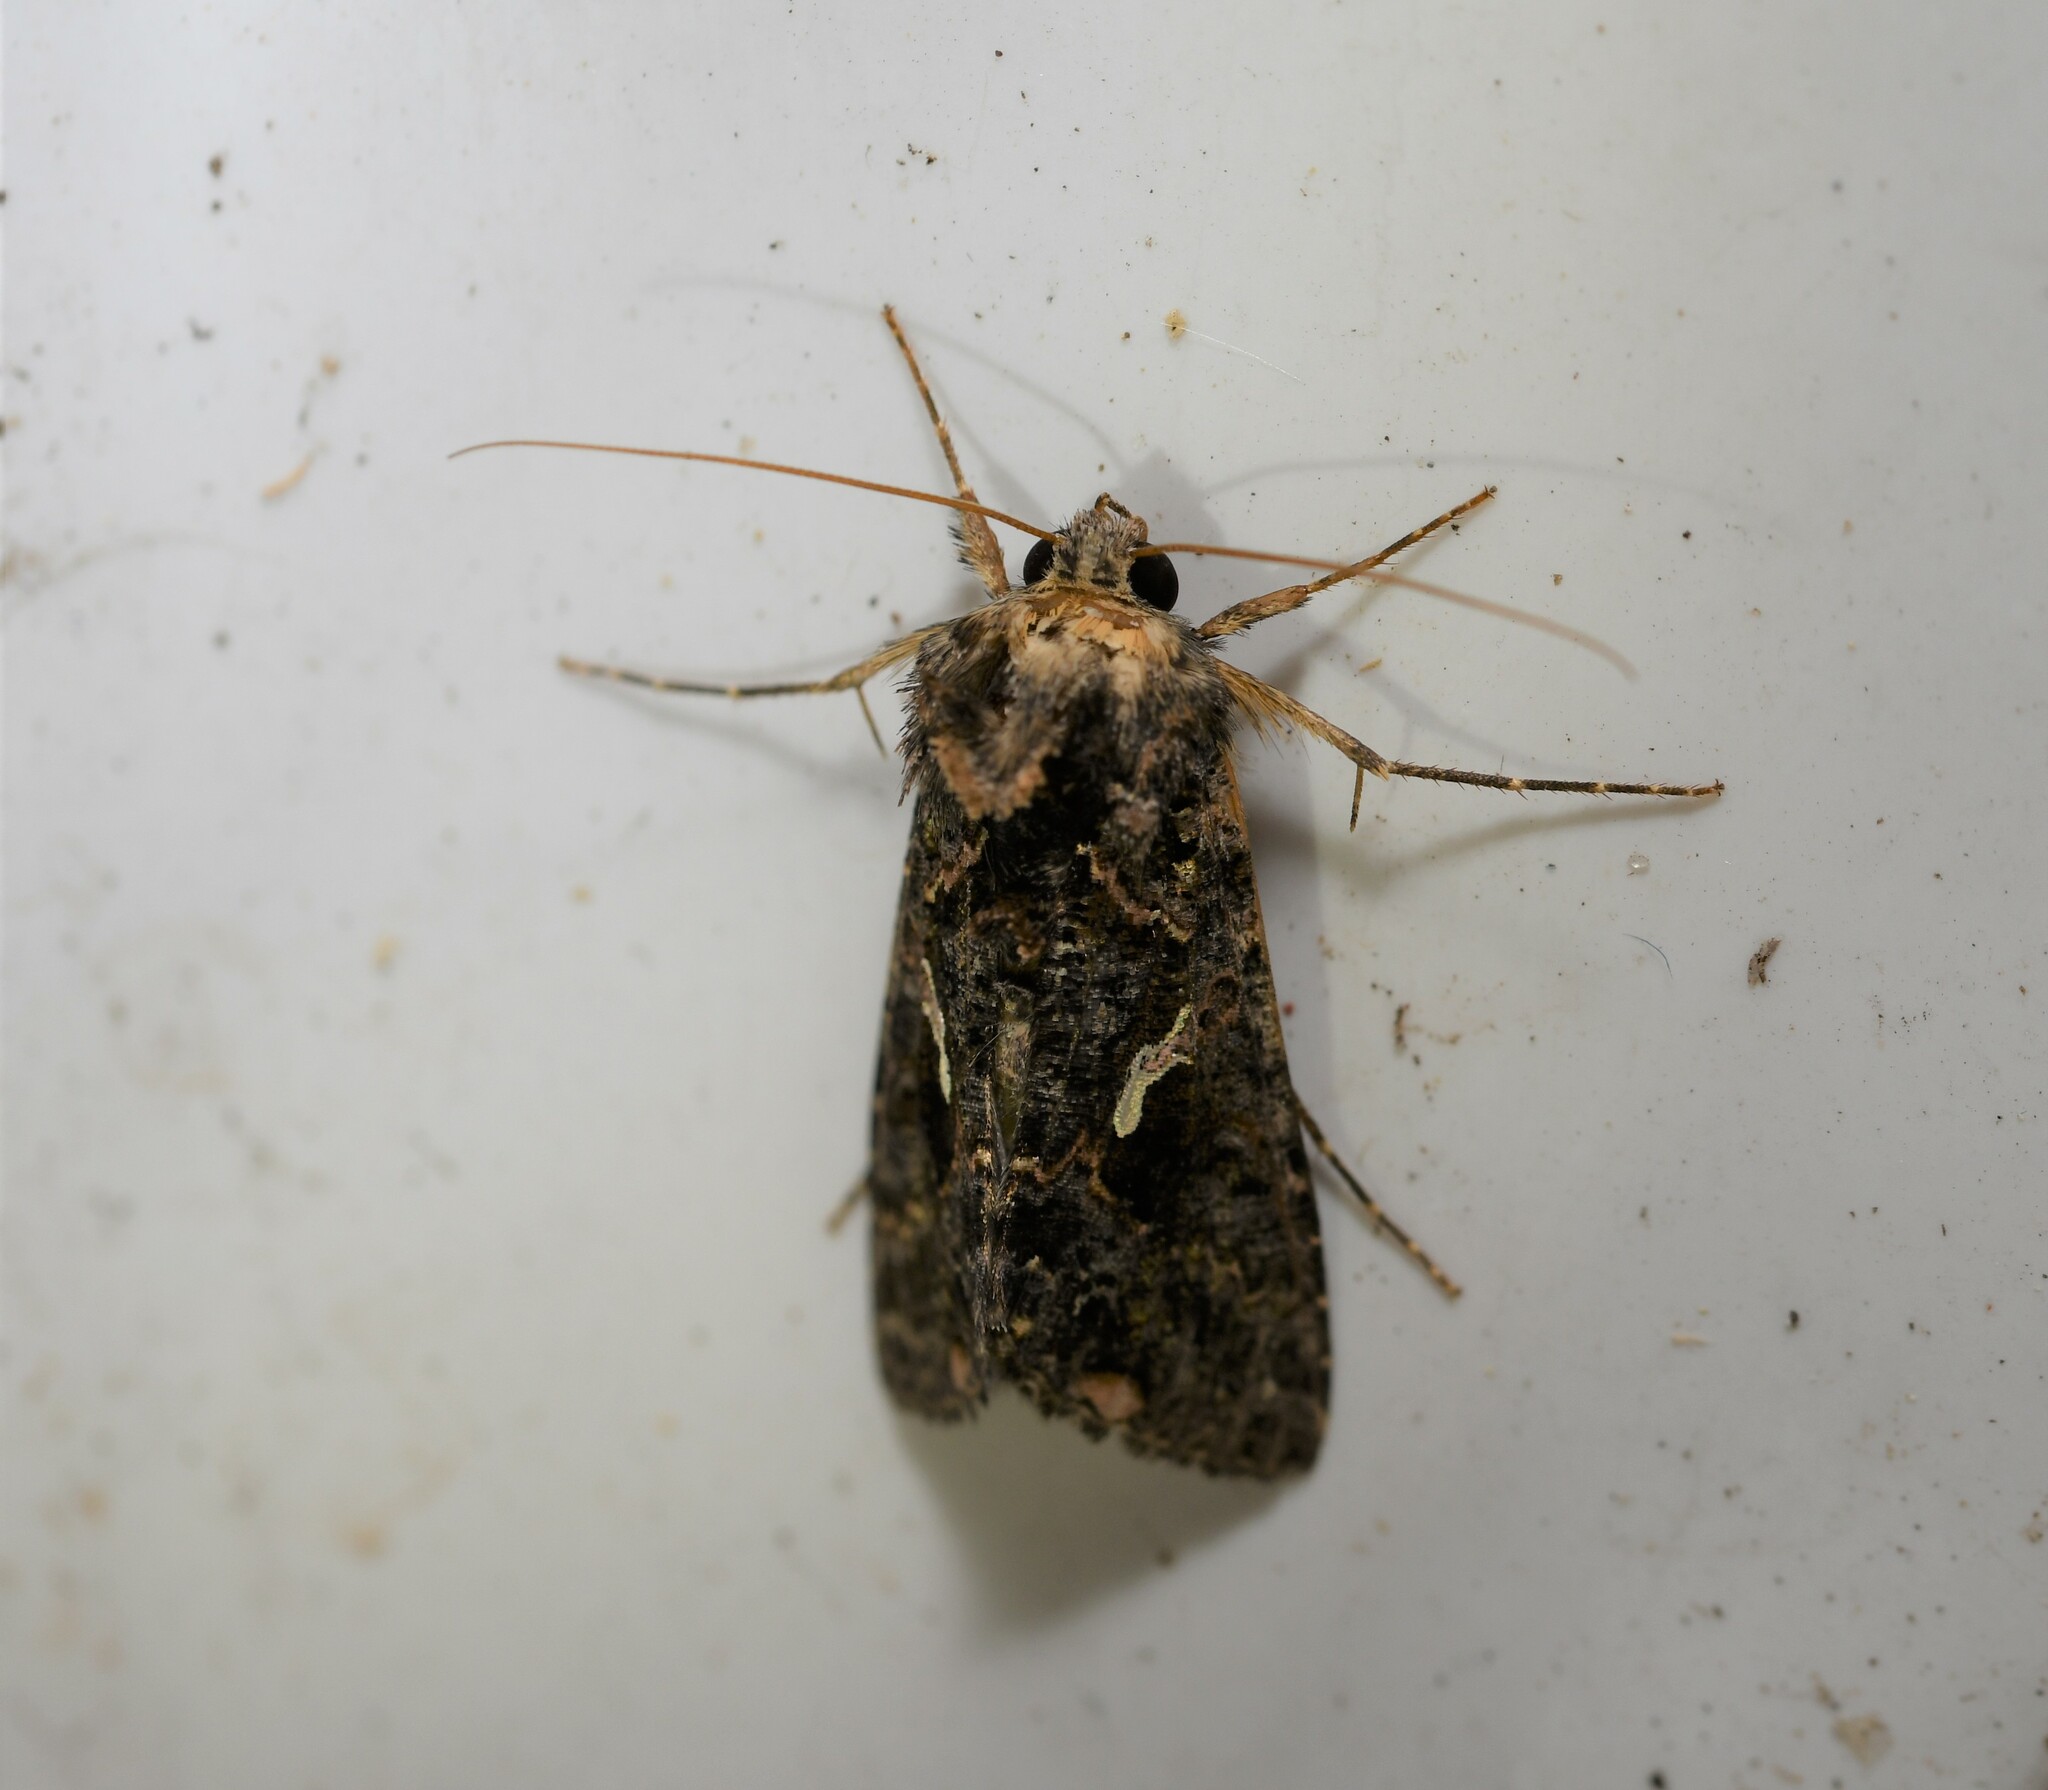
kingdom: Animalia
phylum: Arthropoda
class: Insecta
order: Lepidoptera
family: Noctuidae
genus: Ctenoplusia
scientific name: Ctenoplusia limbirena
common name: Scar bank gem
